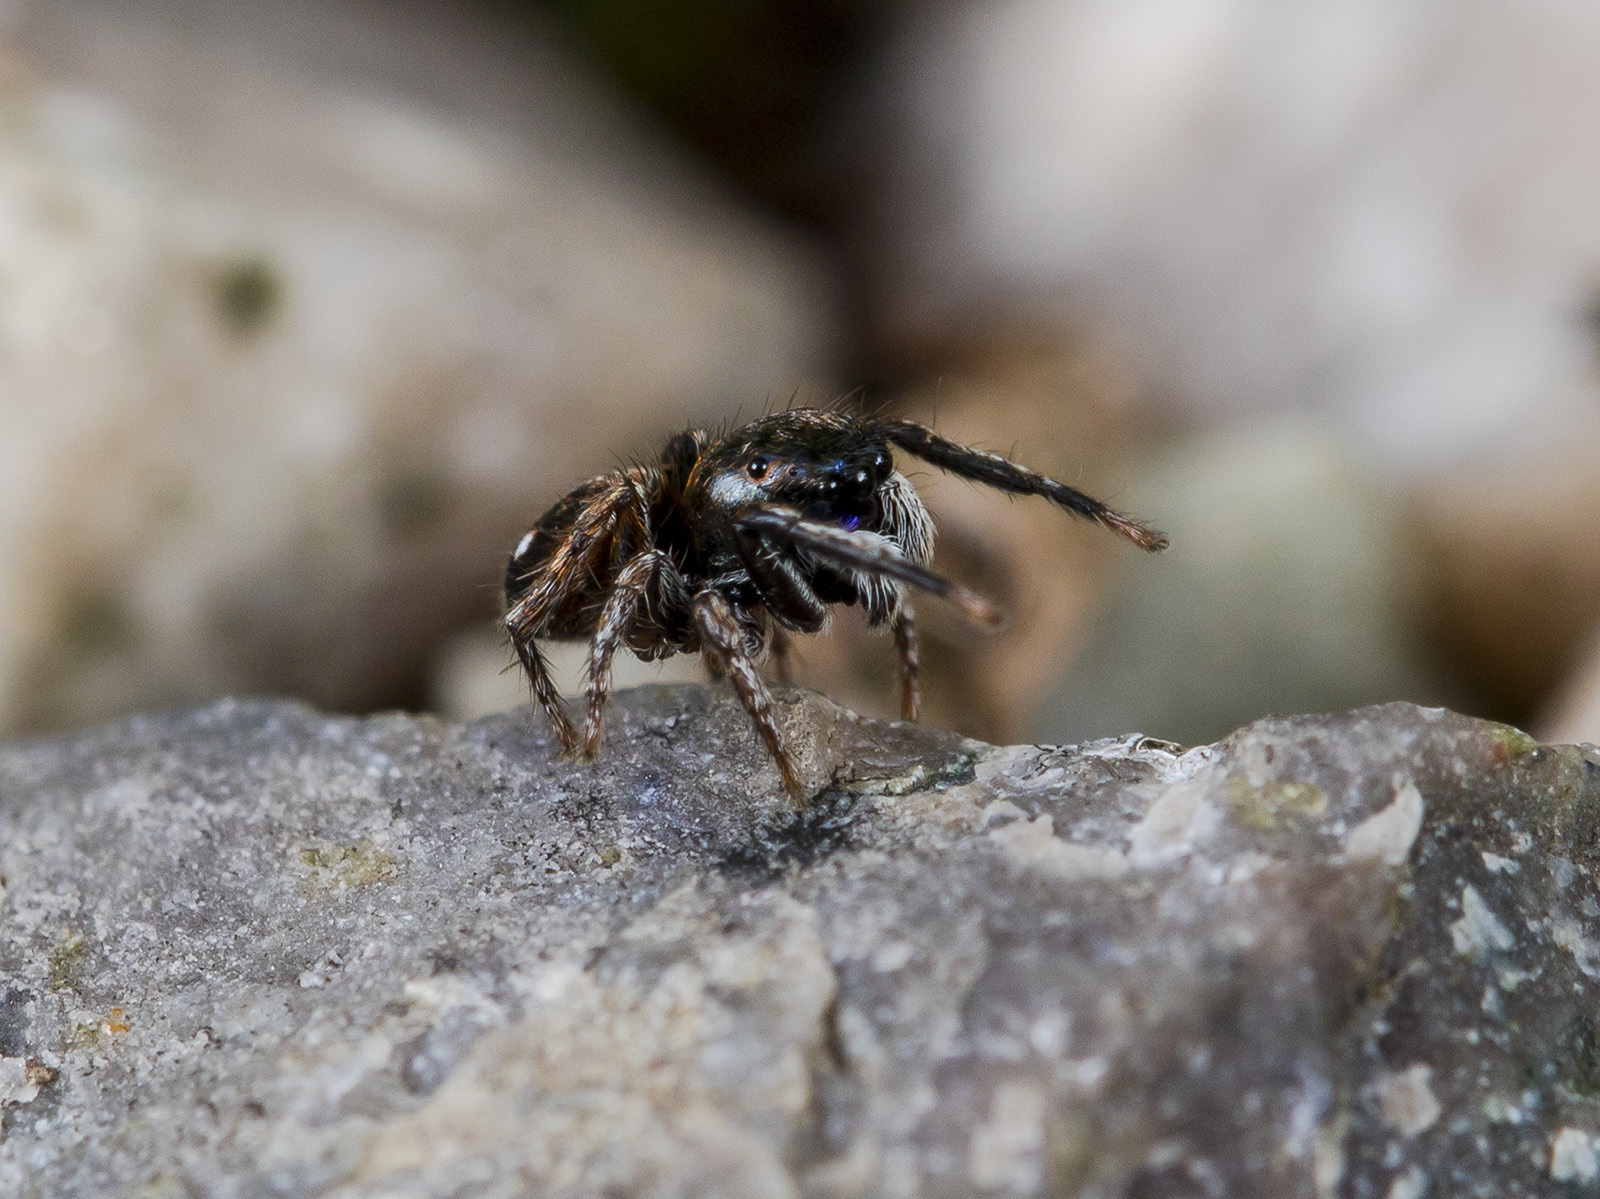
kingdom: Animalia
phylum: Arthropoda
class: Arachnida
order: Araneae
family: Salticidae
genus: Attulus
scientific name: Attulus mirandus
